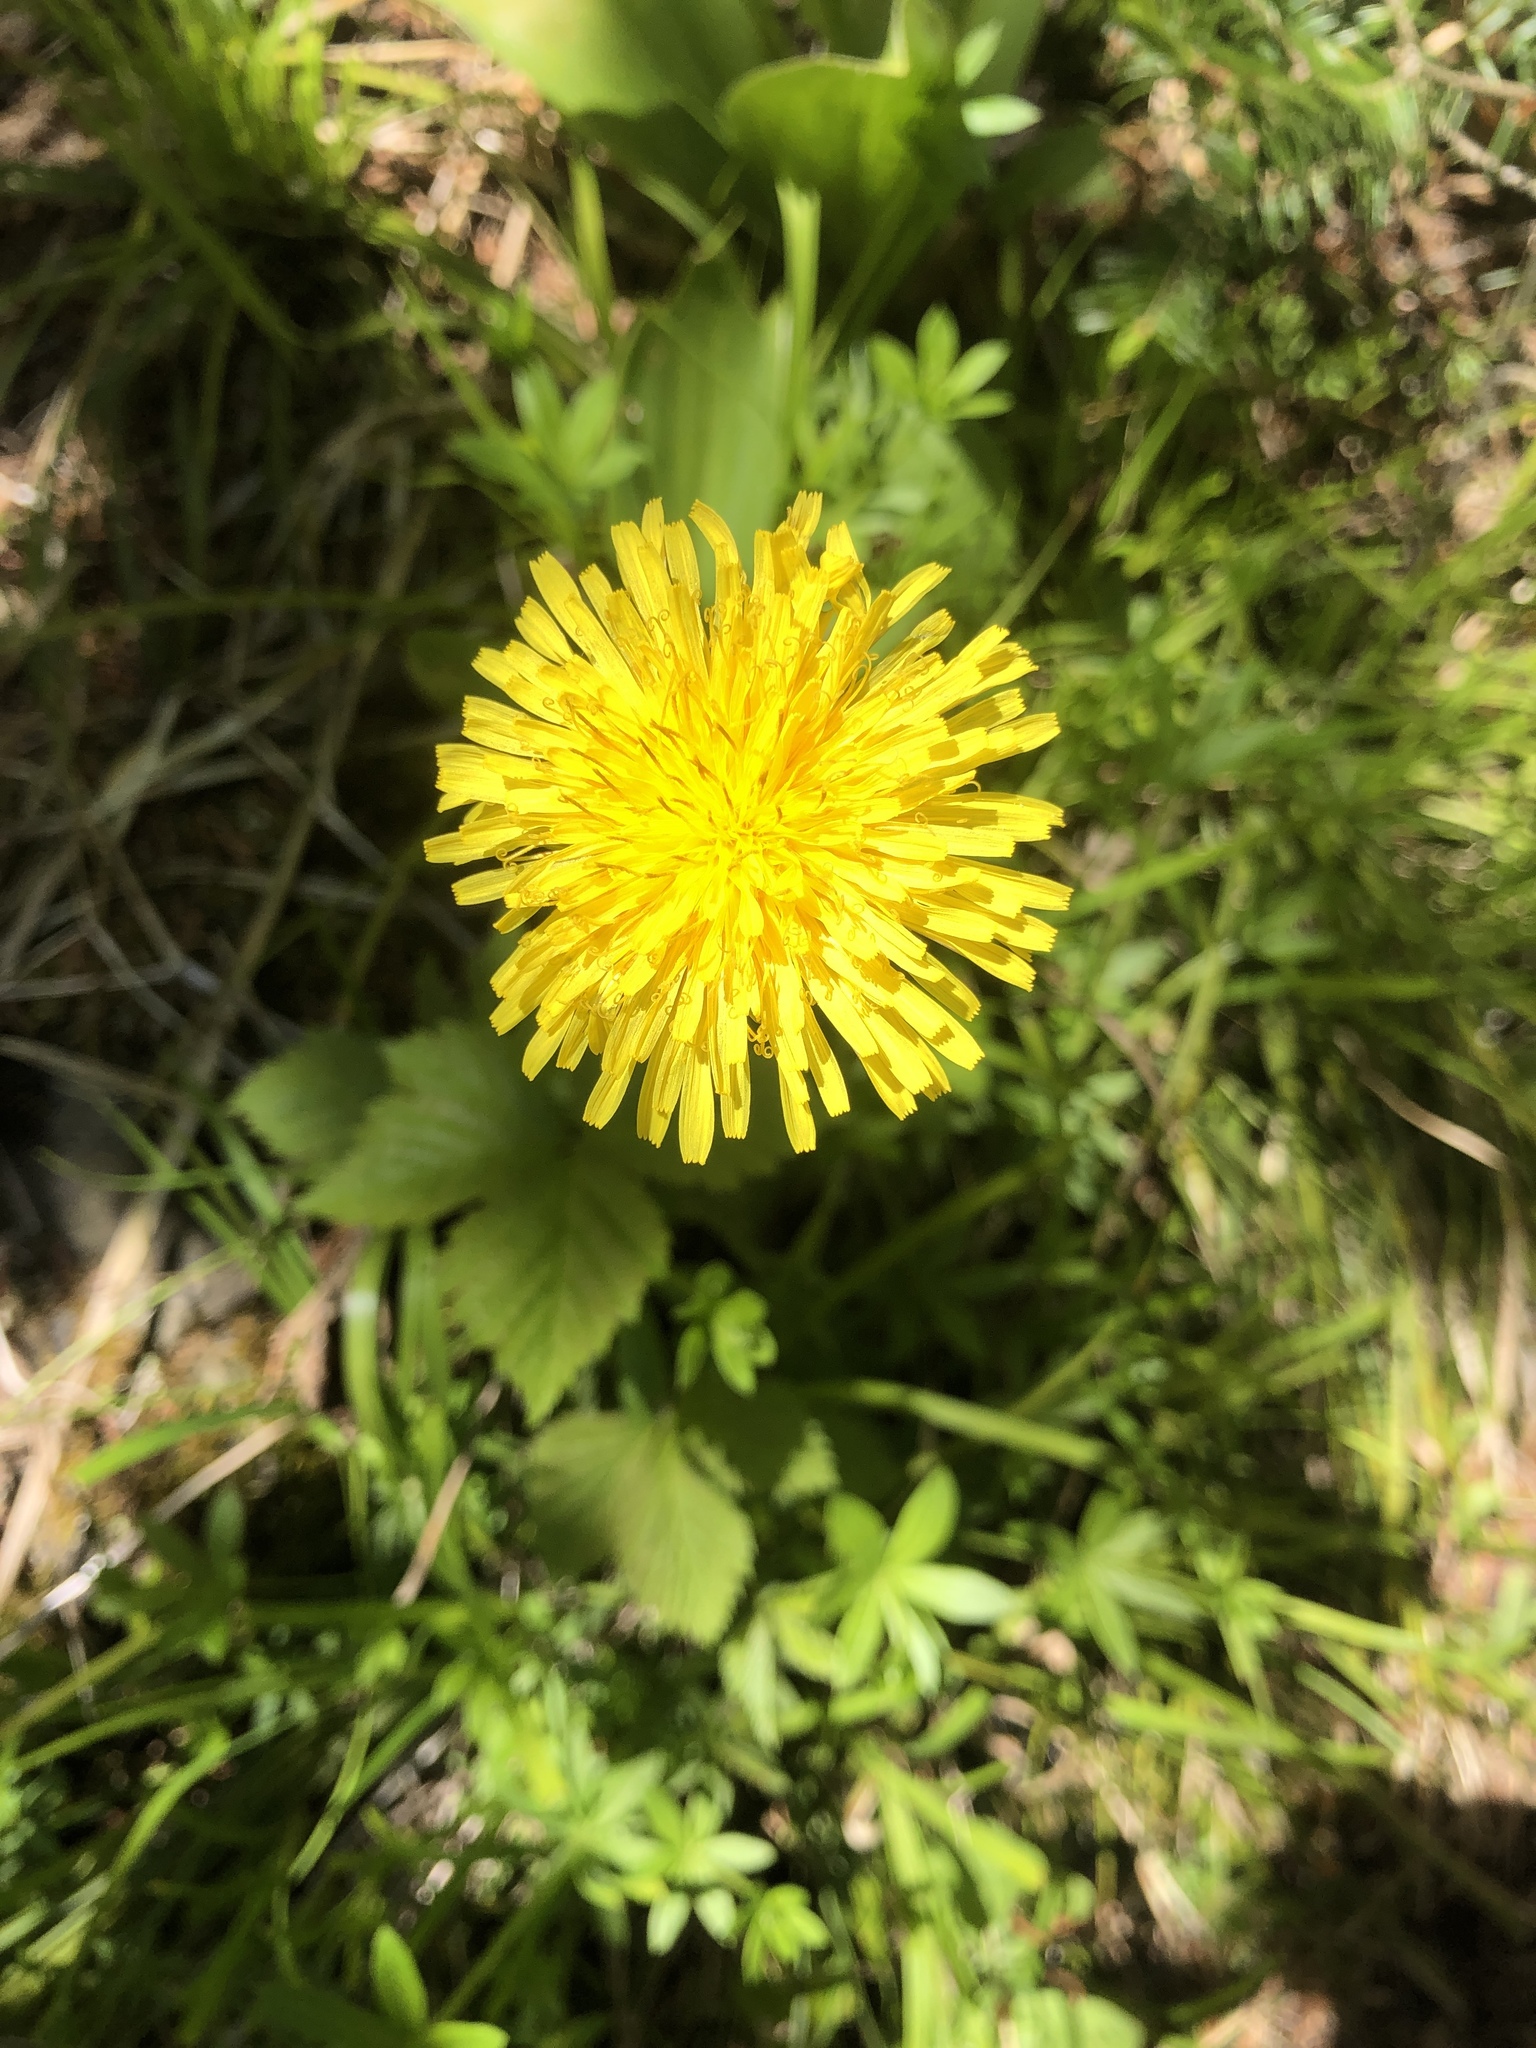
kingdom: Plantae
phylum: Tracheophyta
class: Magnoliopsida
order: Asterales
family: Asteraceae
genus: Taraxacum
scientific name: Taraxacum officinale
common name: Common dandelion
